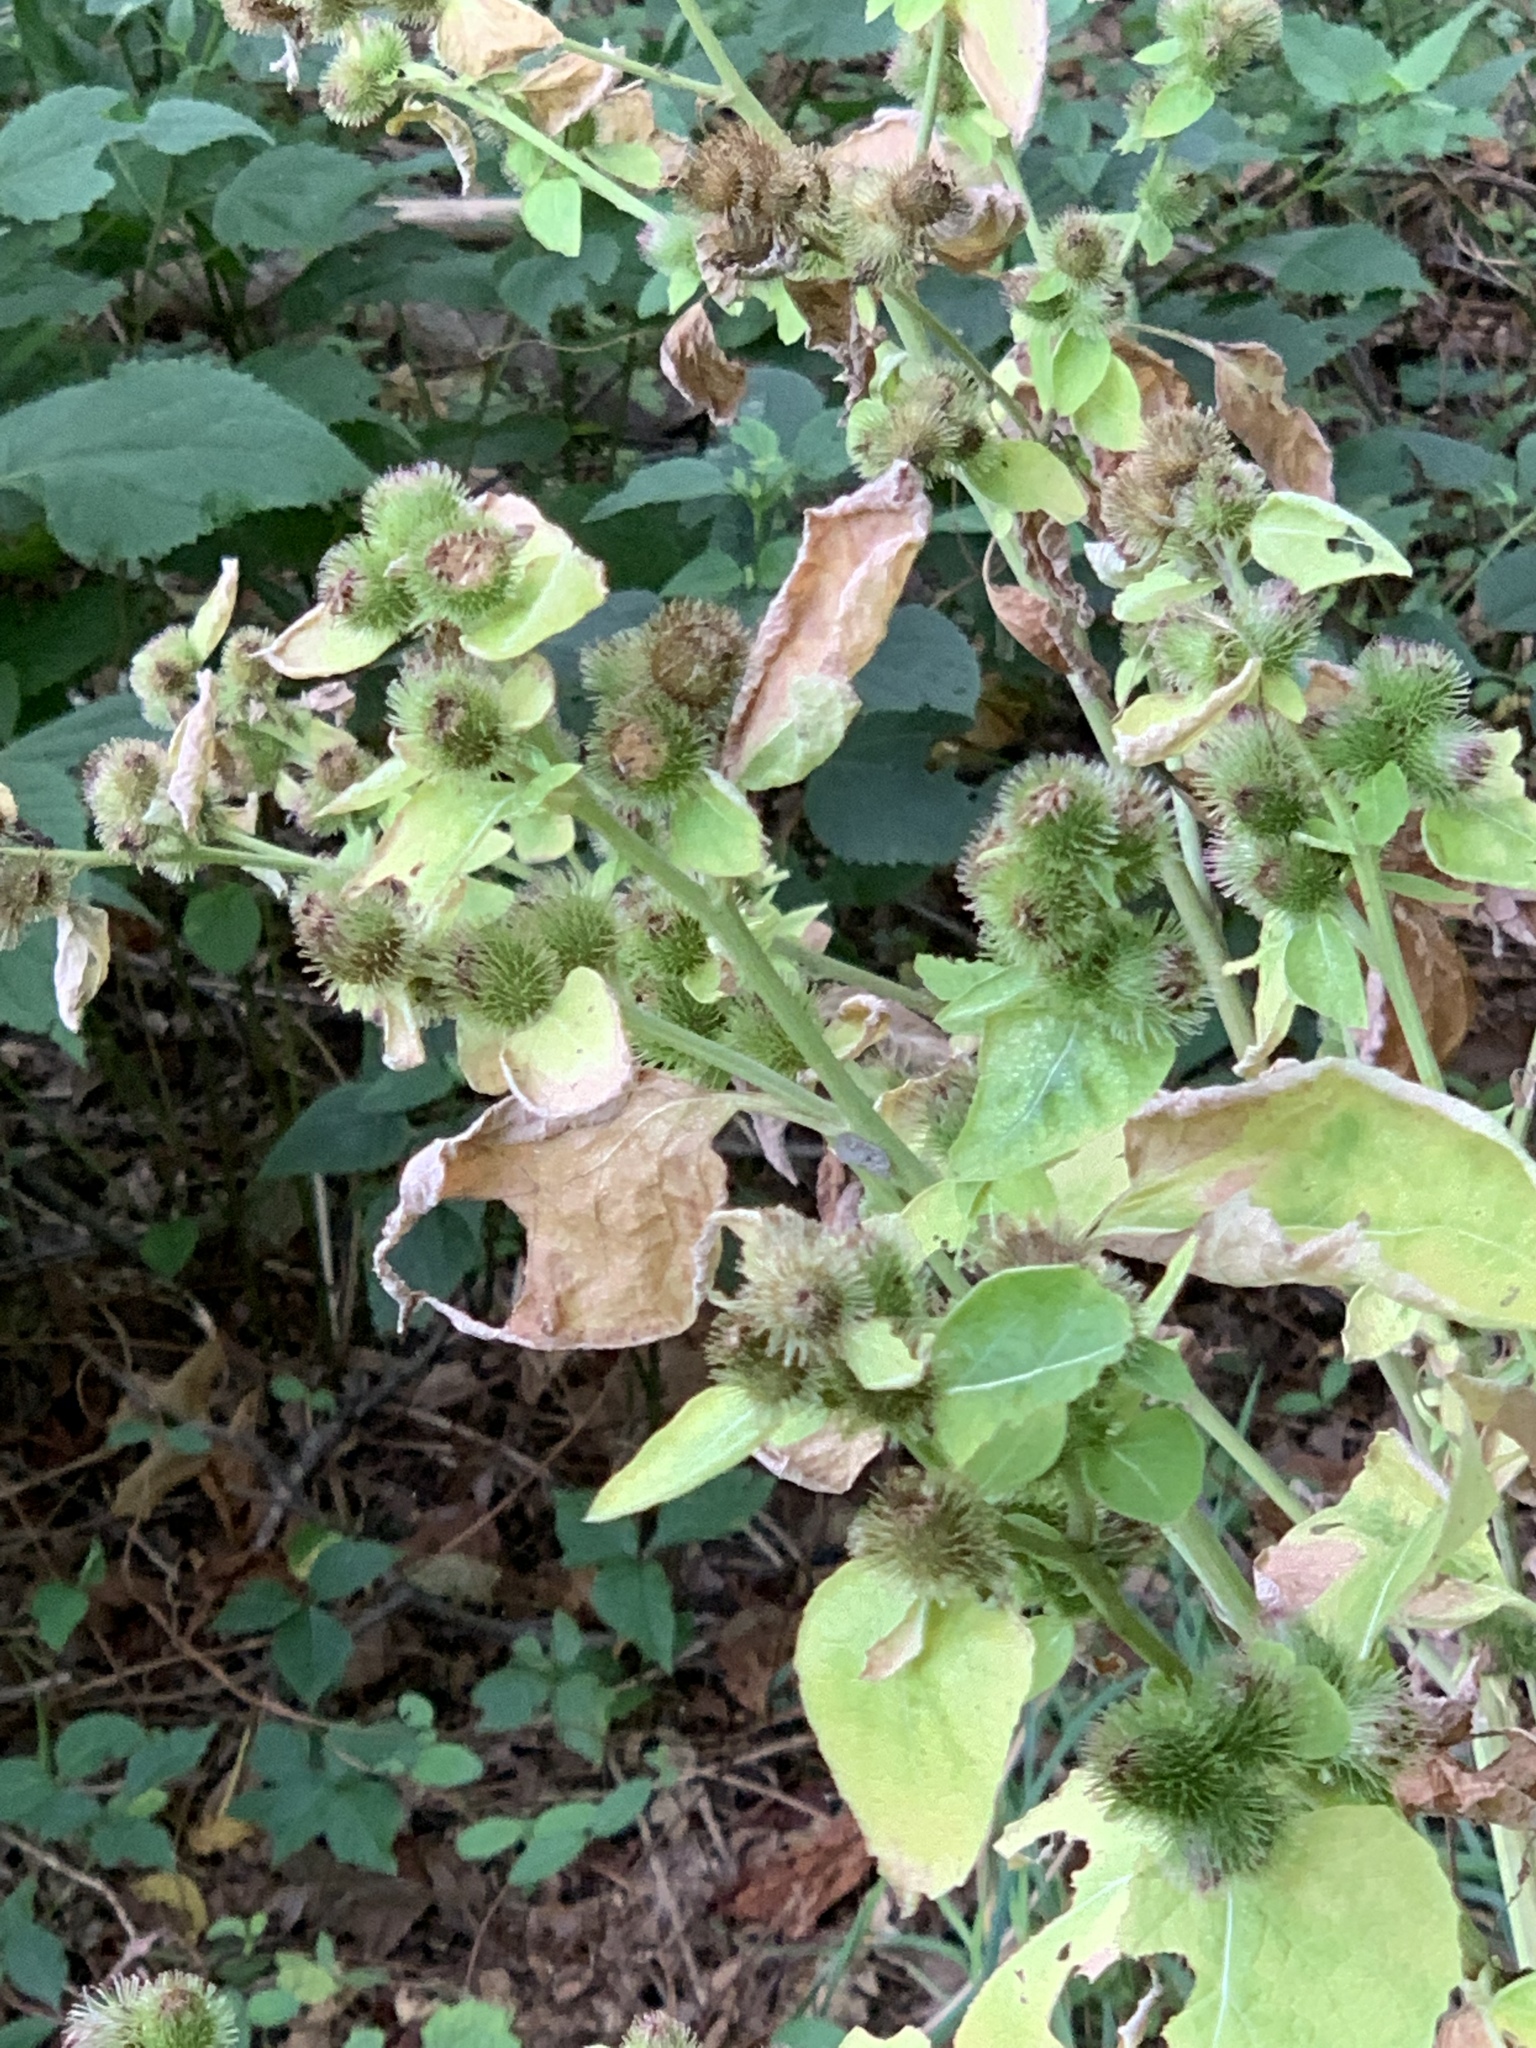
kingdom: Plantae
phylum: Tracheophyta
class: Magnoliopsida
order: Asterales
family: Asteraceae
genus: Arctium
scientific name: Arctium minus
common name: Lesser burdock
